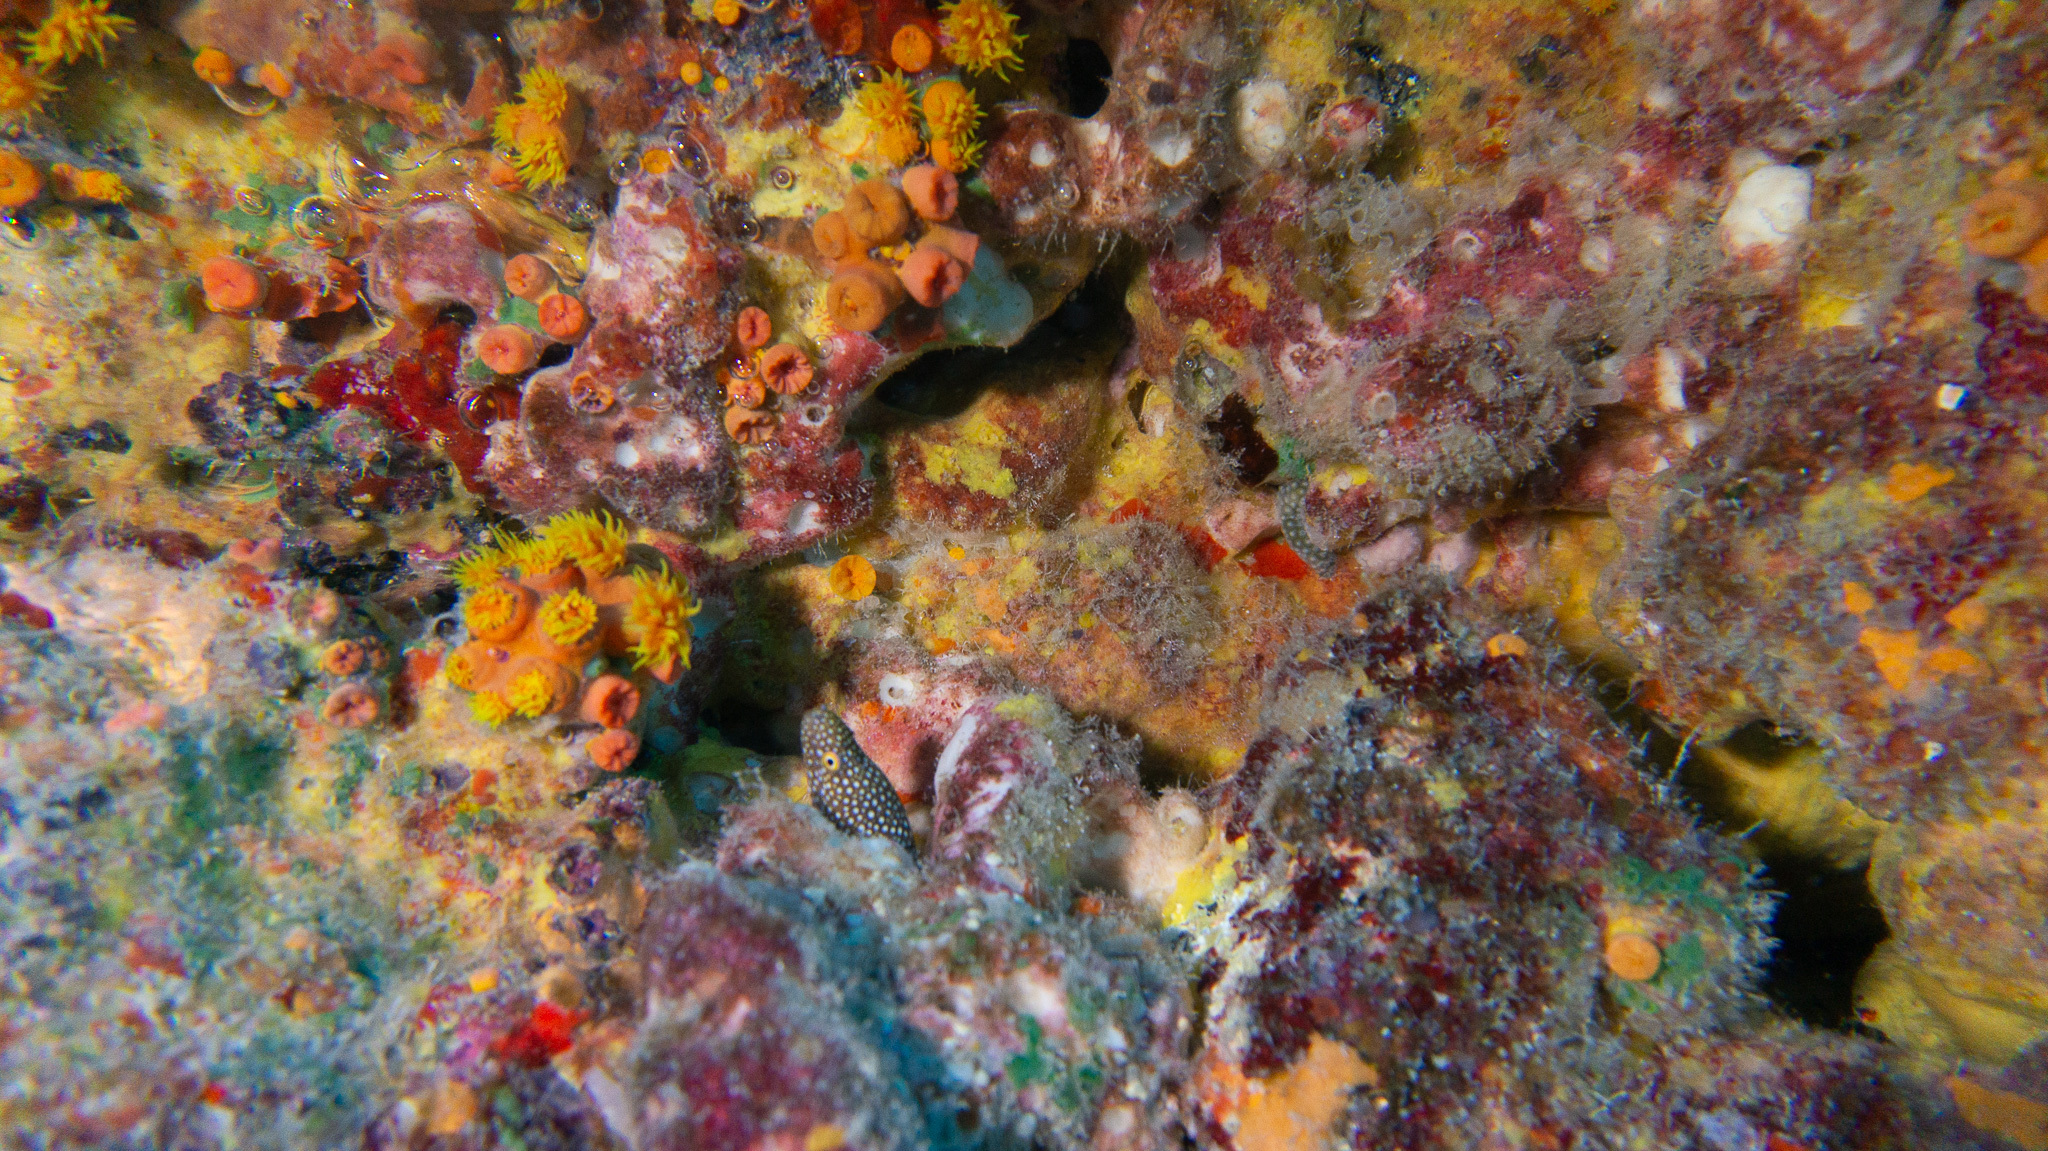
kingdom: Animalia
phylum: Chordata
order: Anguilliformes
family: Muraenidae
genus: Gymnothorax
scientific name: Gymnothorax meleagris
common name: Guineafowl moray
